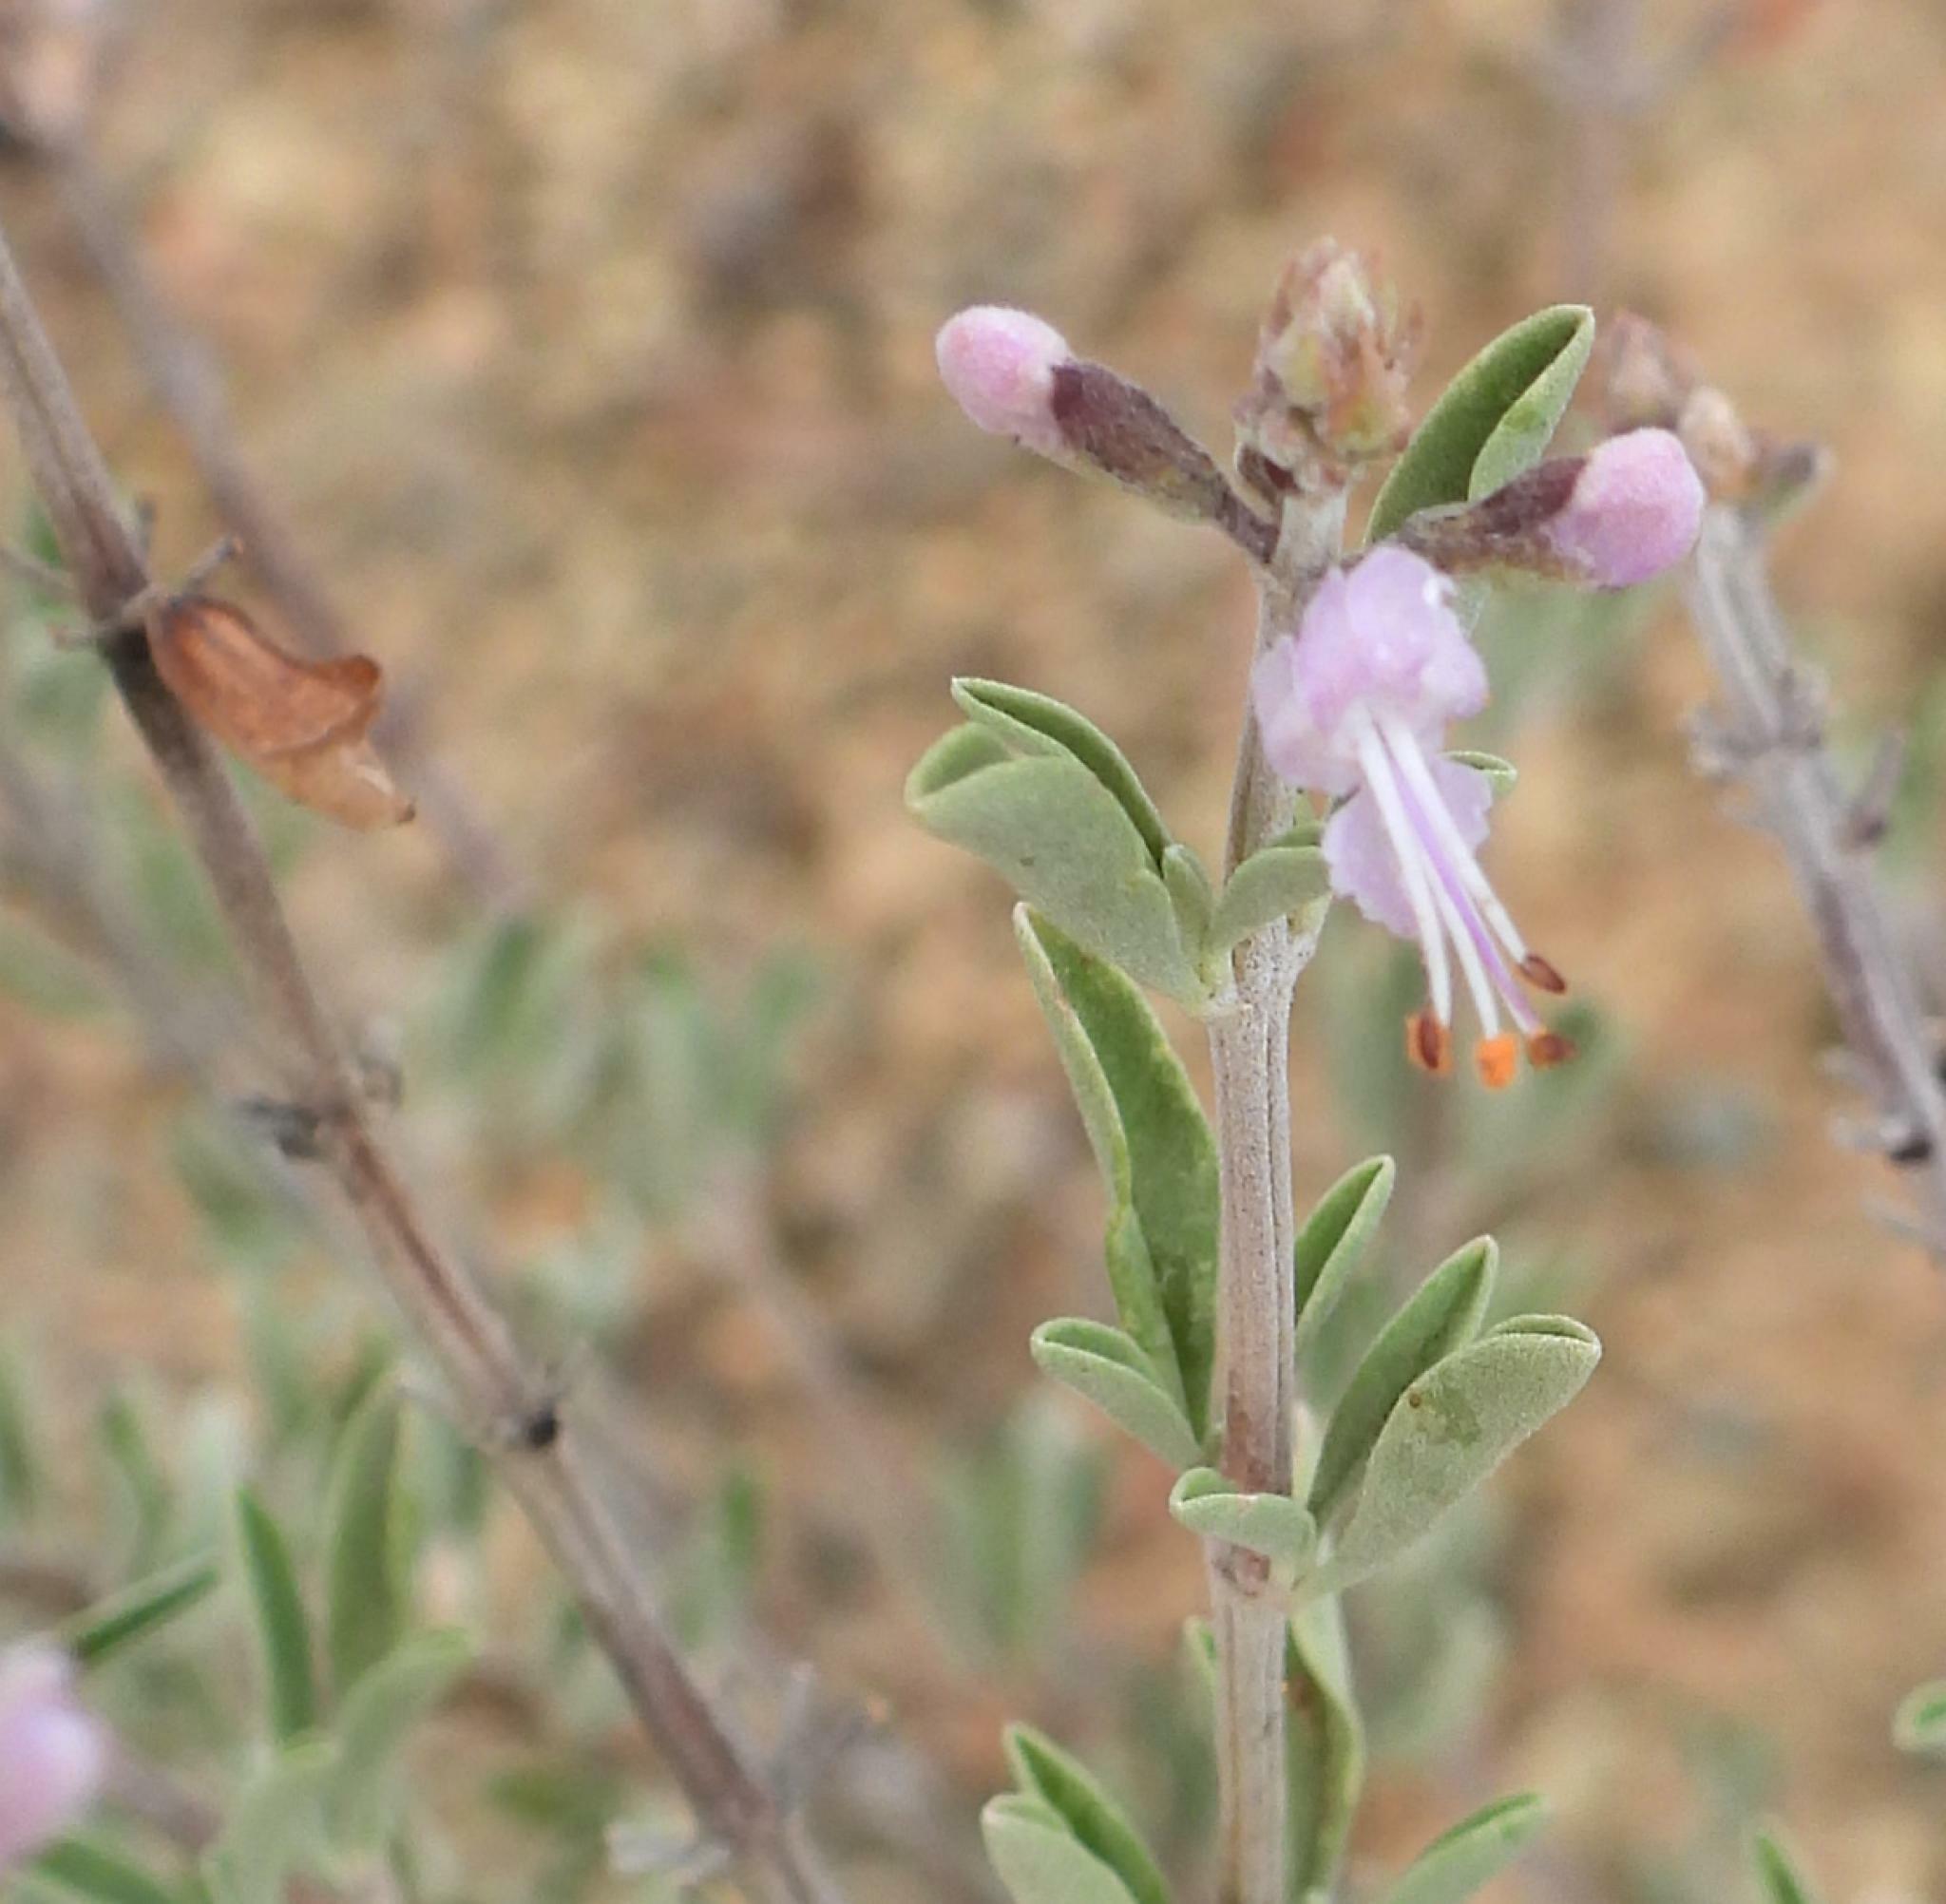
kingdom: Plantae
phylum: Tracheophyta
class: Magnoliopsida
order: Lamiales
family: Lamiaceae
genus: Ocimum
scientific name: Ocimum burchellianum
